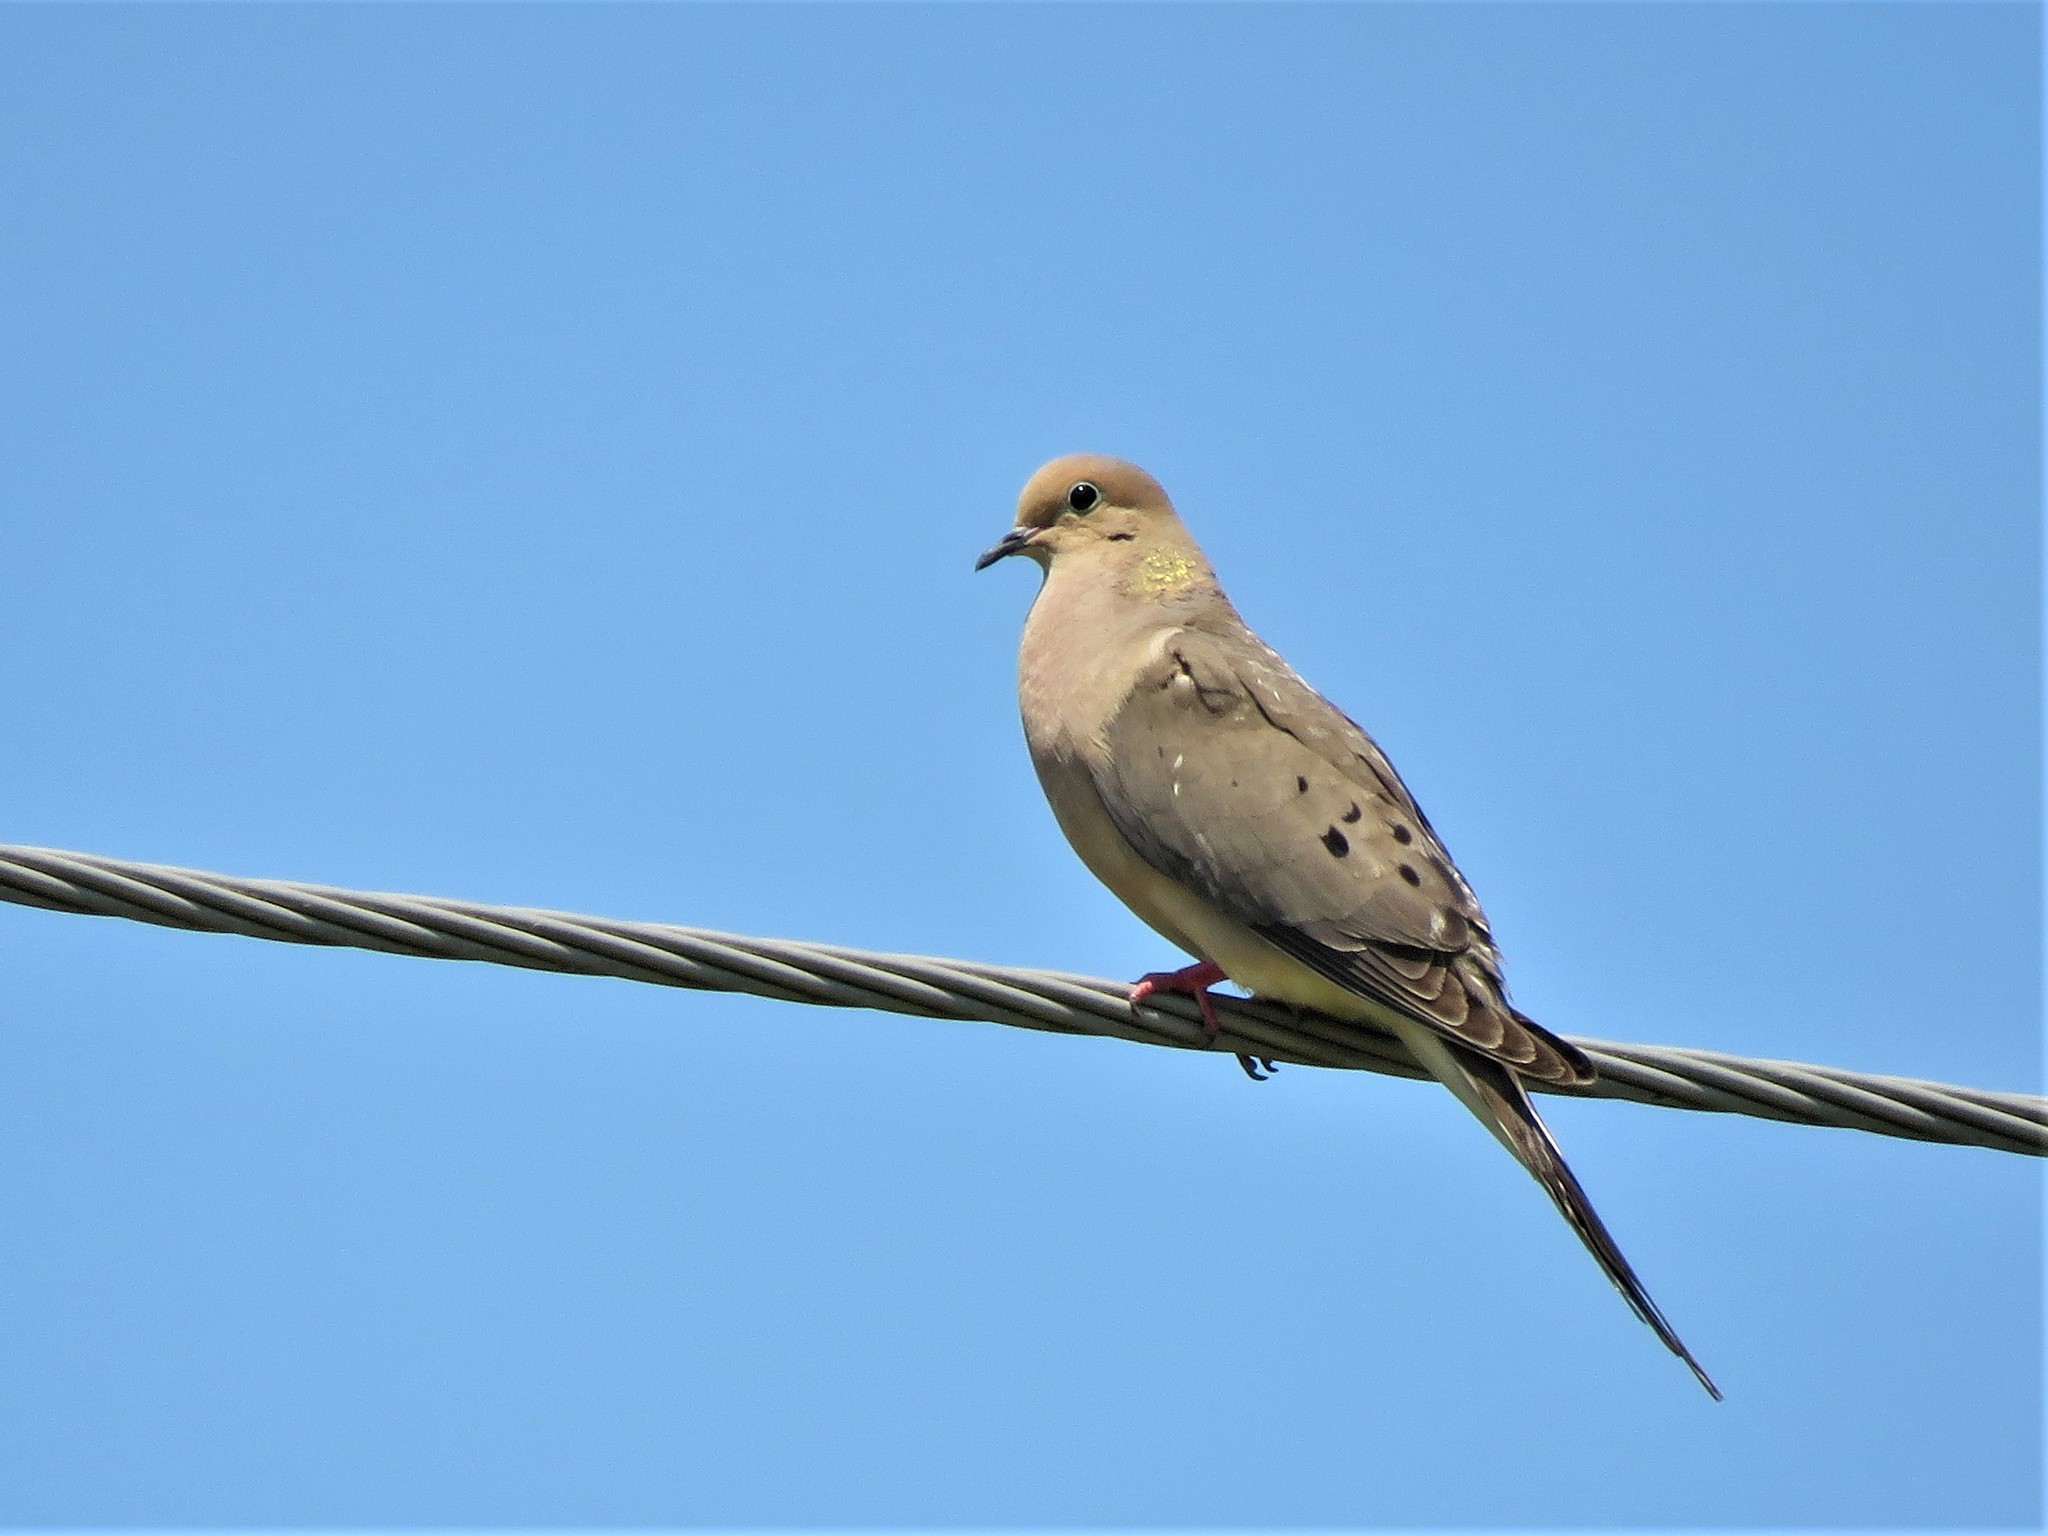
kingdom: Animalia
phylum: Chordata
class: Aves
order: Columbiformes
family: Columbidae
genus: Zenaida
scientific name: Zenaida macroura
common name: Mourning dove
